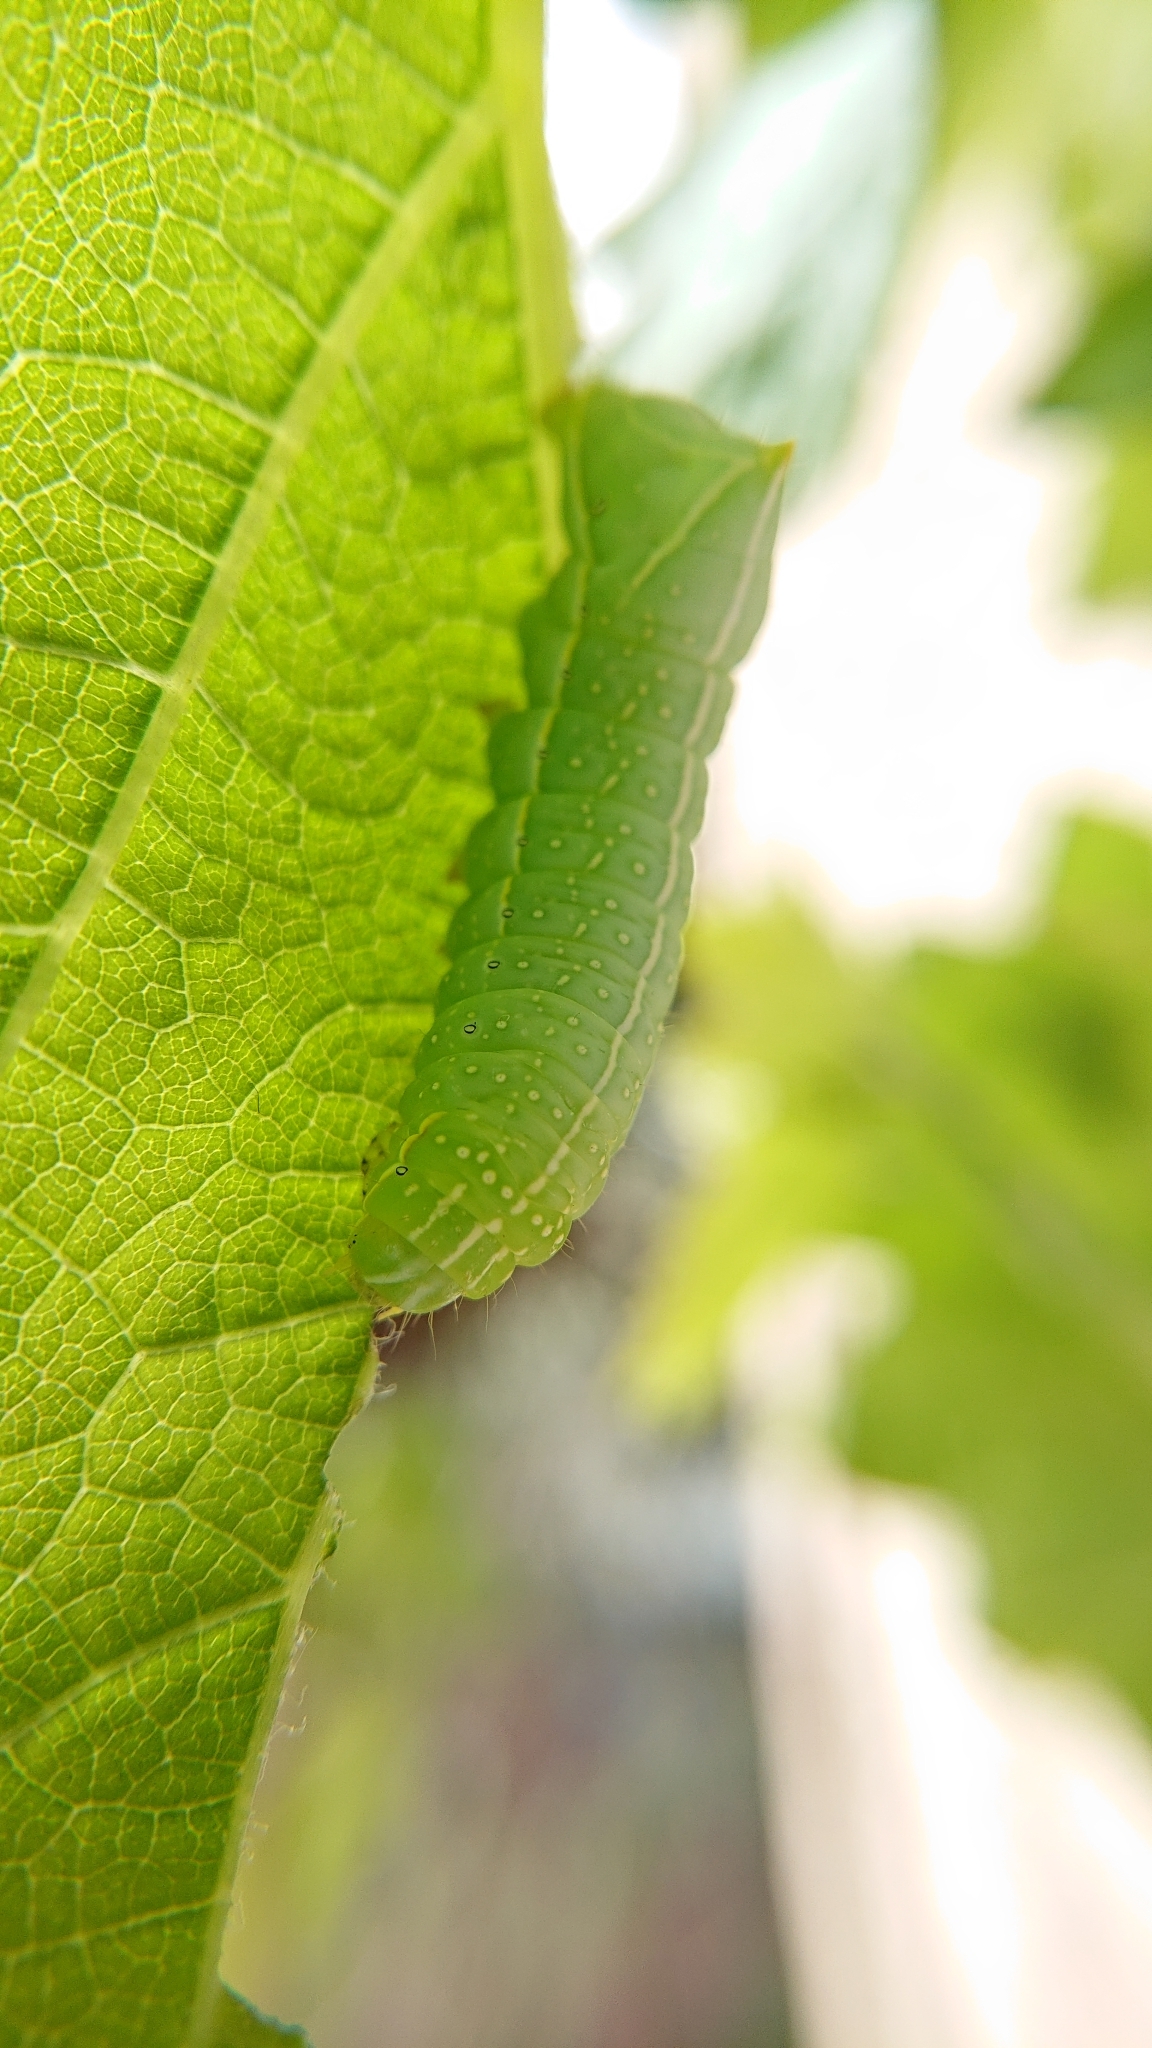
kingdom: Animalia
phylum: Arthropoda
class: Insecta
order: Lepidoptera
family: Noctuidae
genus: Amphipyra
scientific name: Amphipyra pyramidea
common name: Copper underwing
